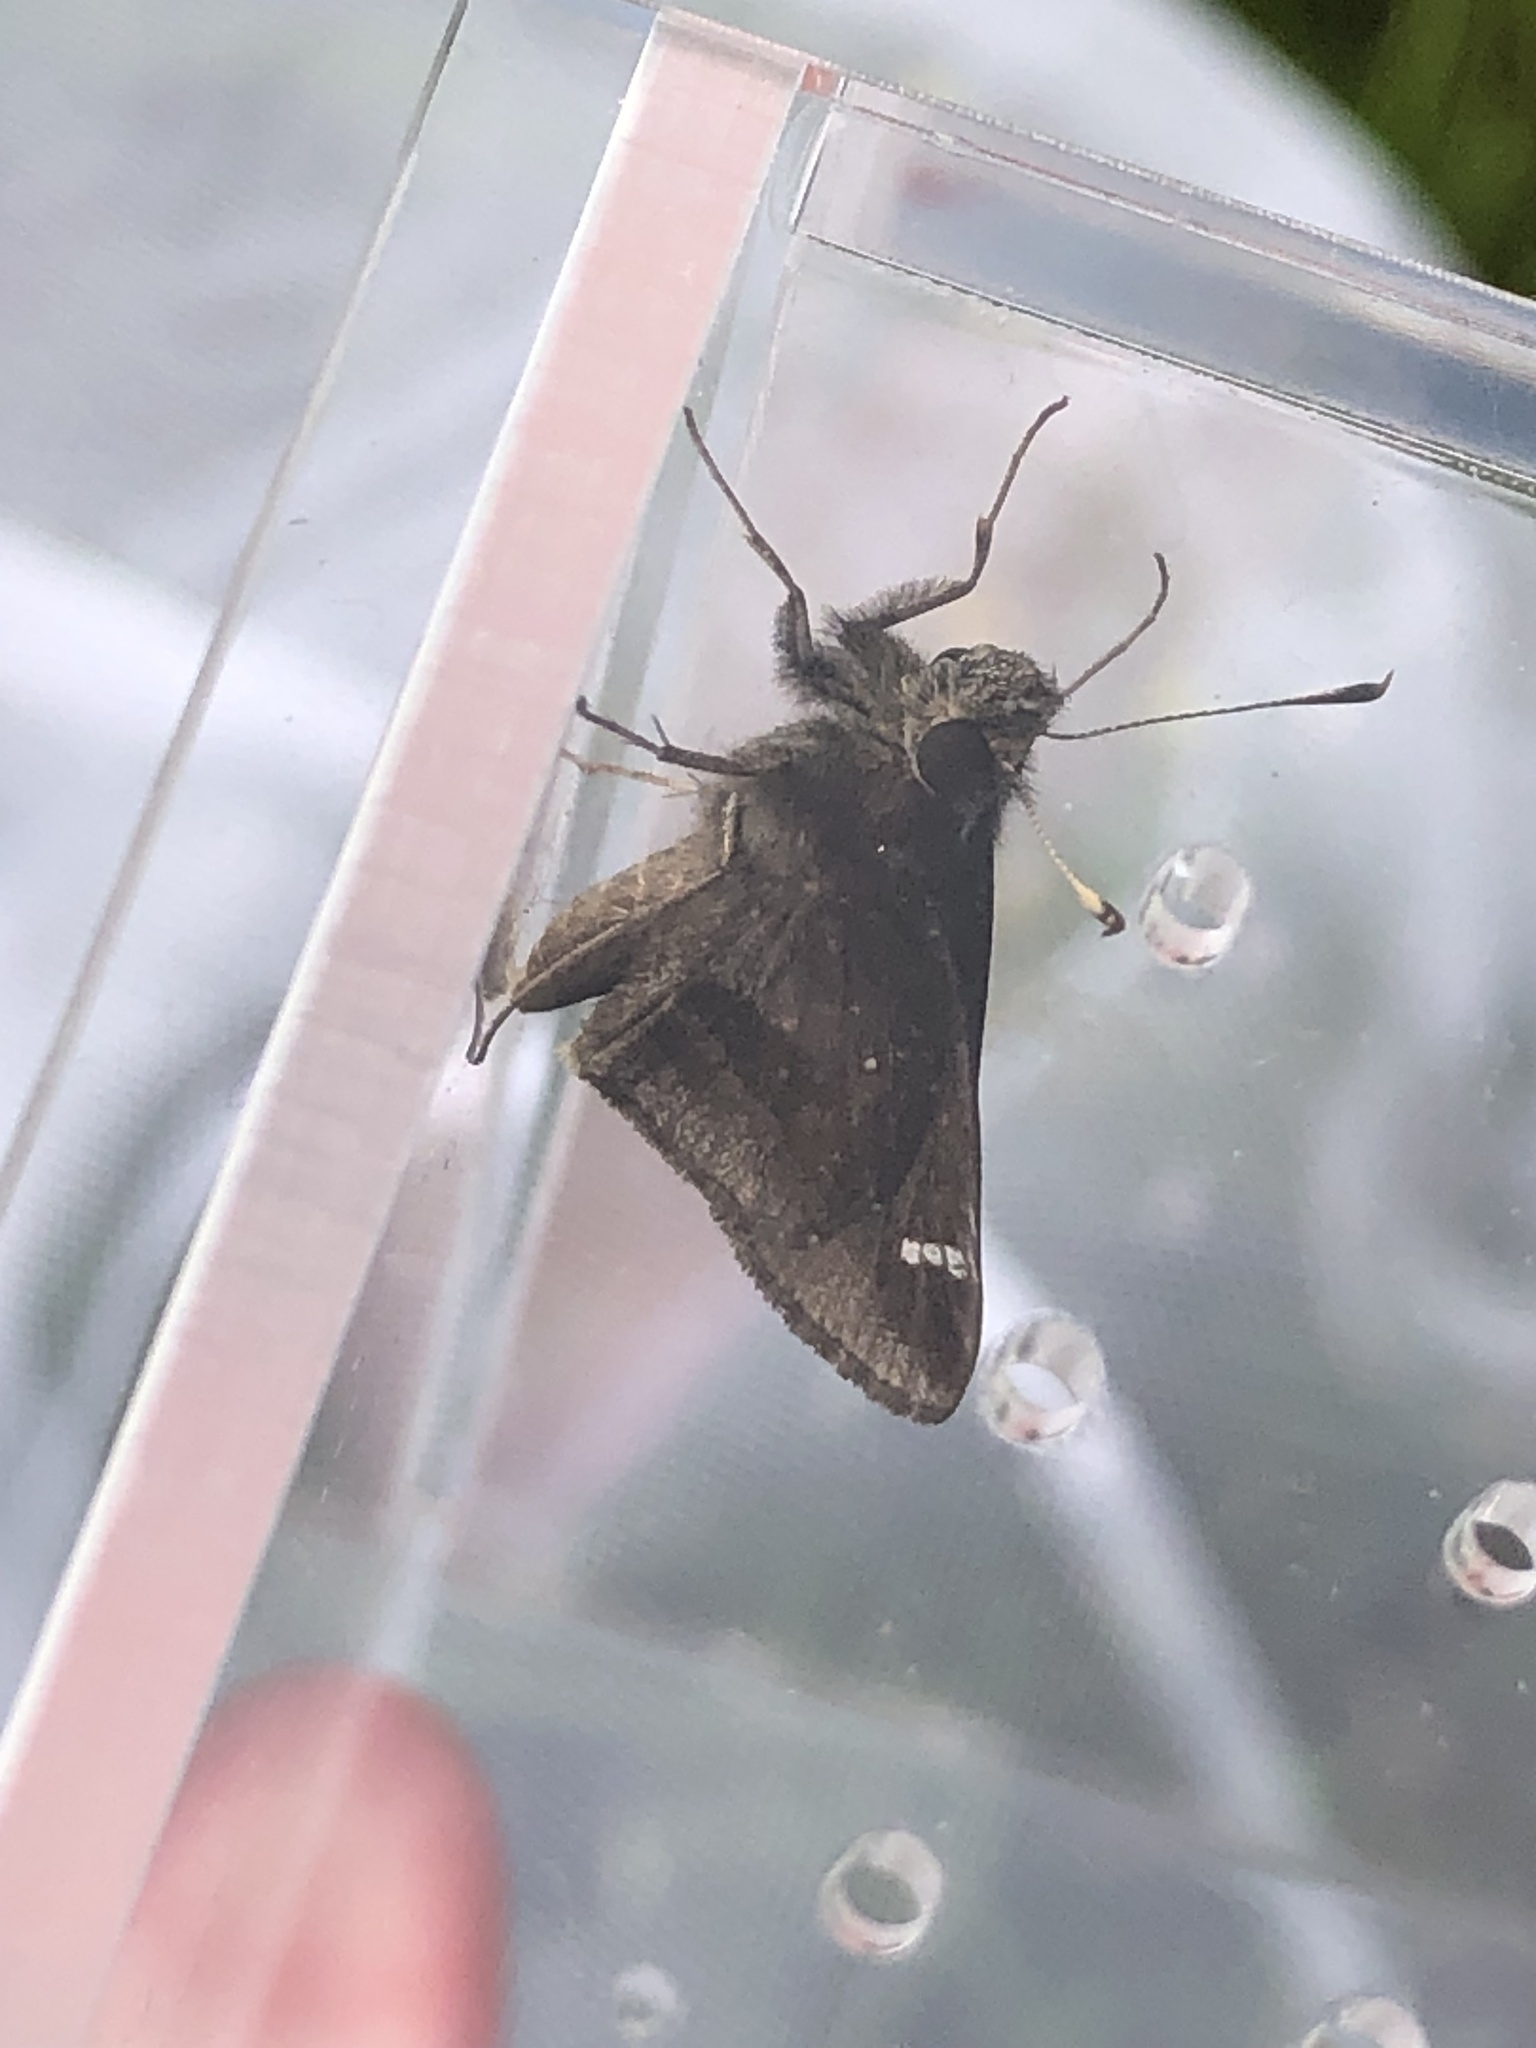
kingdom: Animalia
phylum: Arthropoda
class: Insecta
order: Lepidoptera
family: Hesperiidae
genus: Lerema
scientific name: Lerema accius
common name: Clouded skipper
